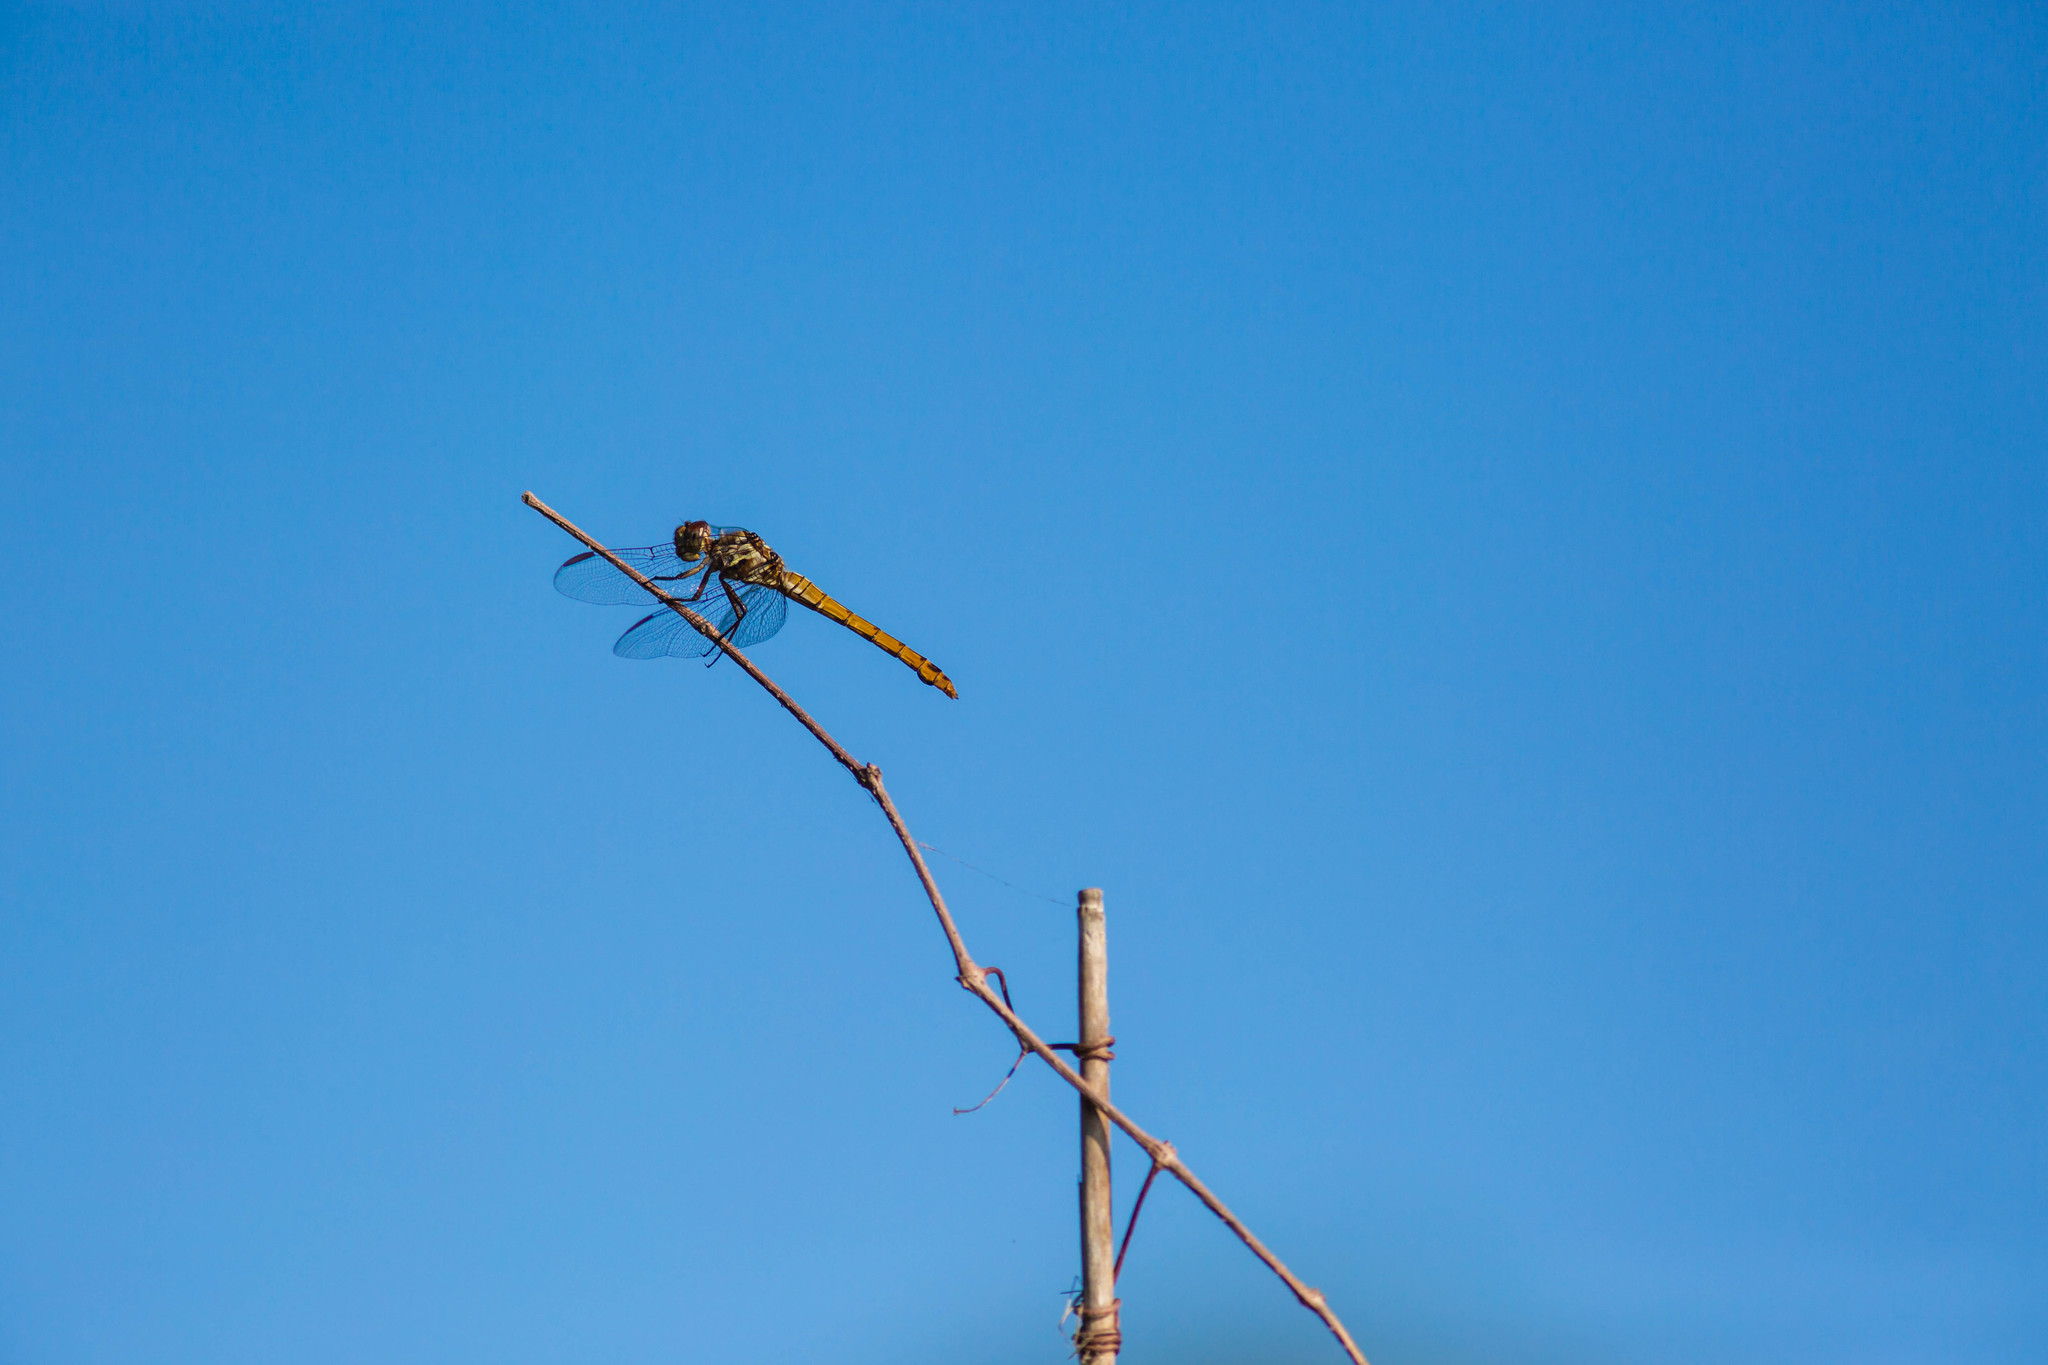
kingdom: Animalia
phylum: Arthropoda
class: Insecta
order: Odonata
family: Libellulidae
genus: Orthemis
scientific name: Orthemis ferruginea
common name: Roseate skimmer
